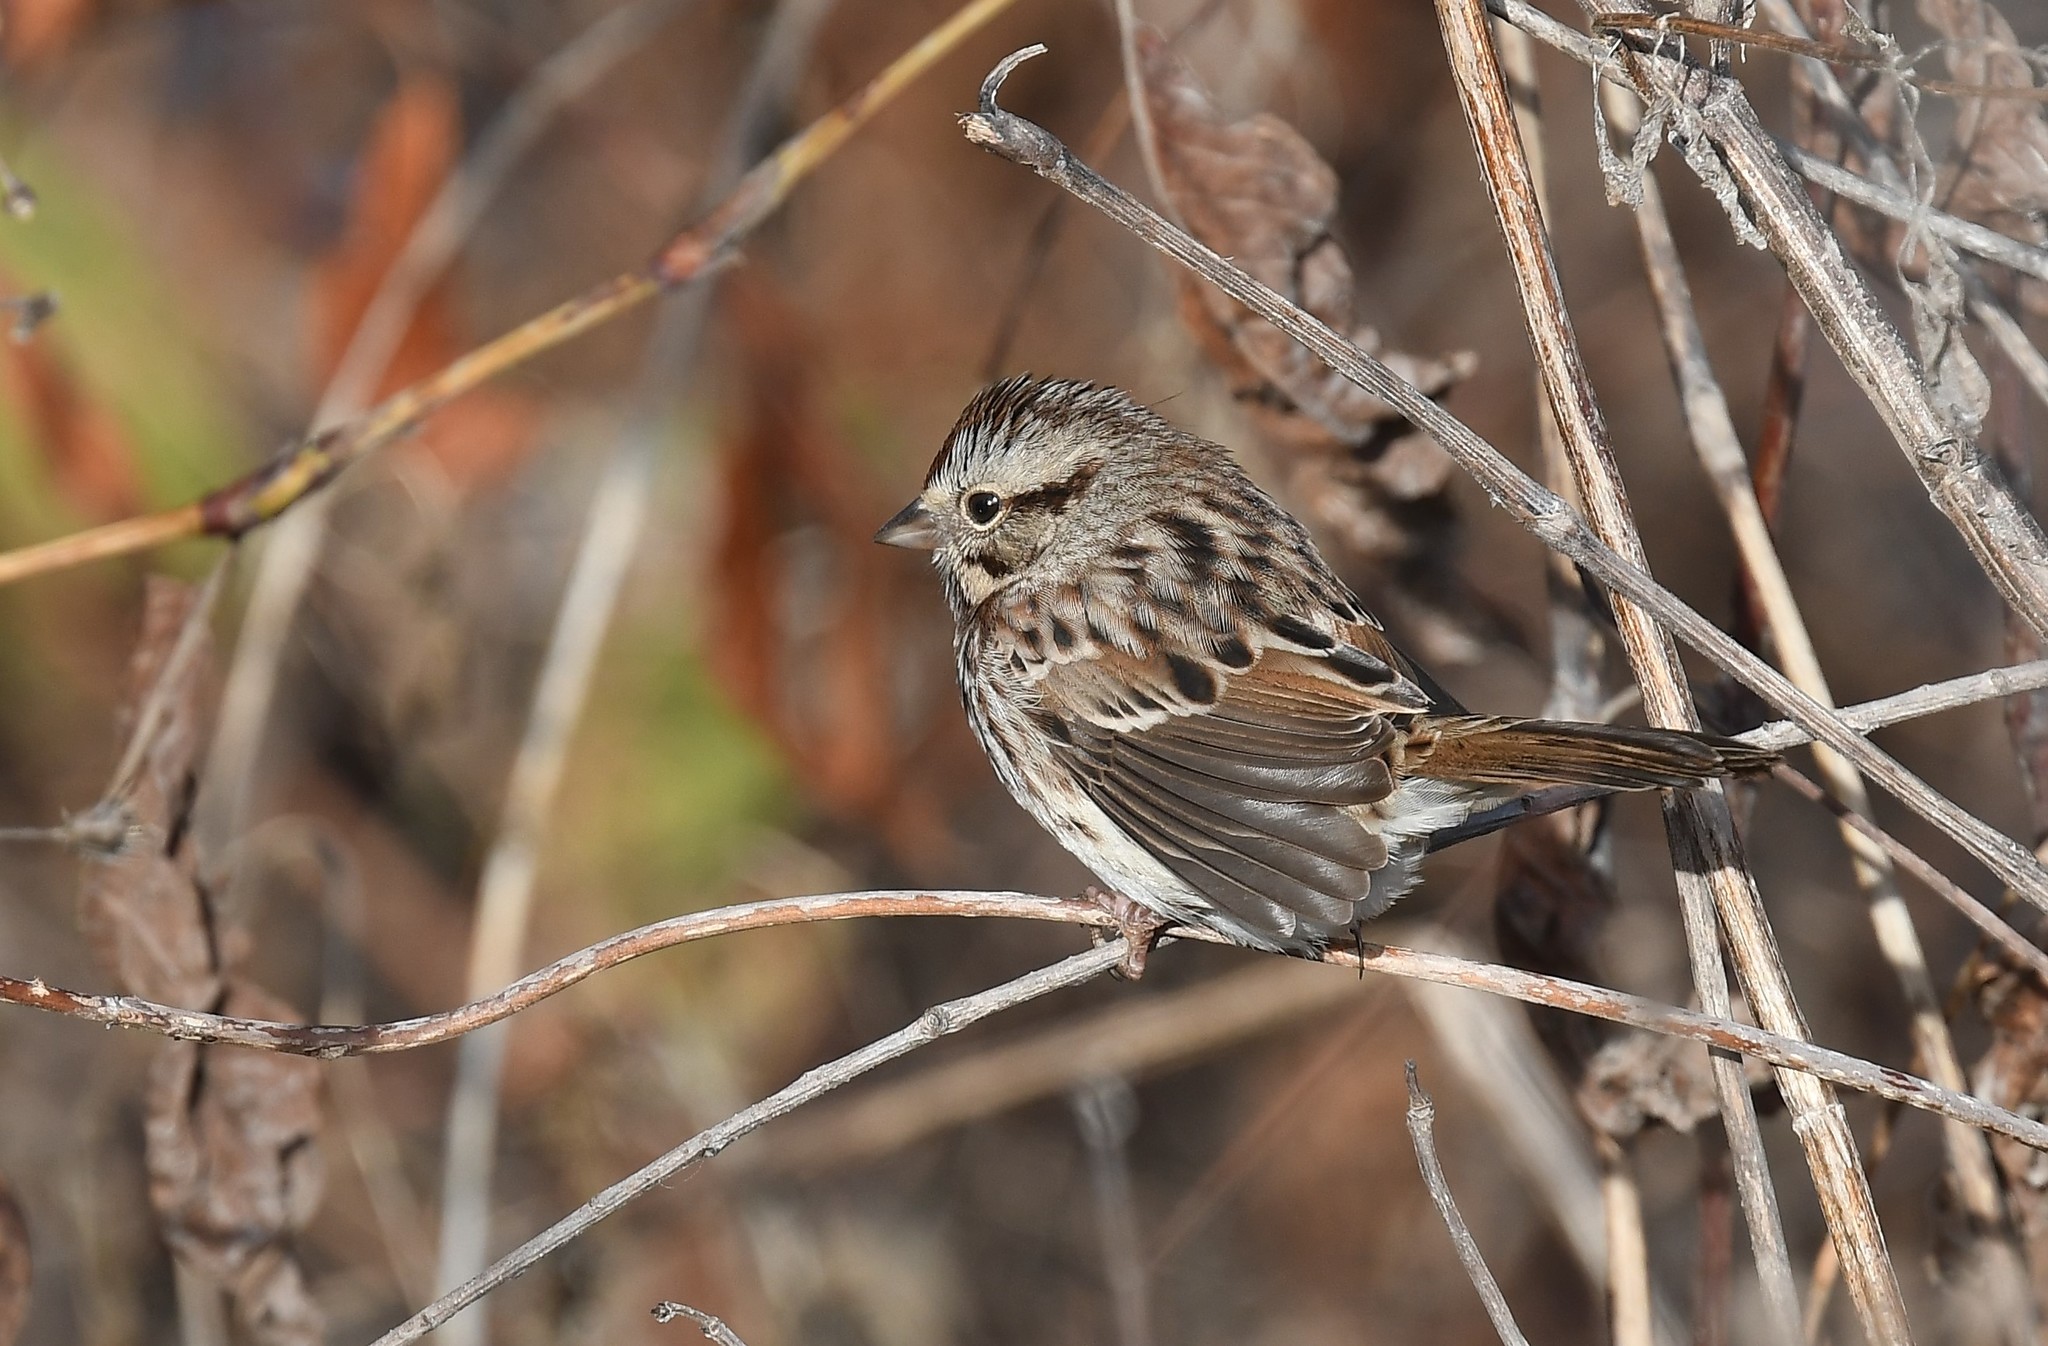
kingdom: Animalia
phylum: Chordata
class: Aves
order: Passeriformes
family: Passerellidae
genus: Melospiza
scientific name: Melospiza melodia
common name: Song sparrow
